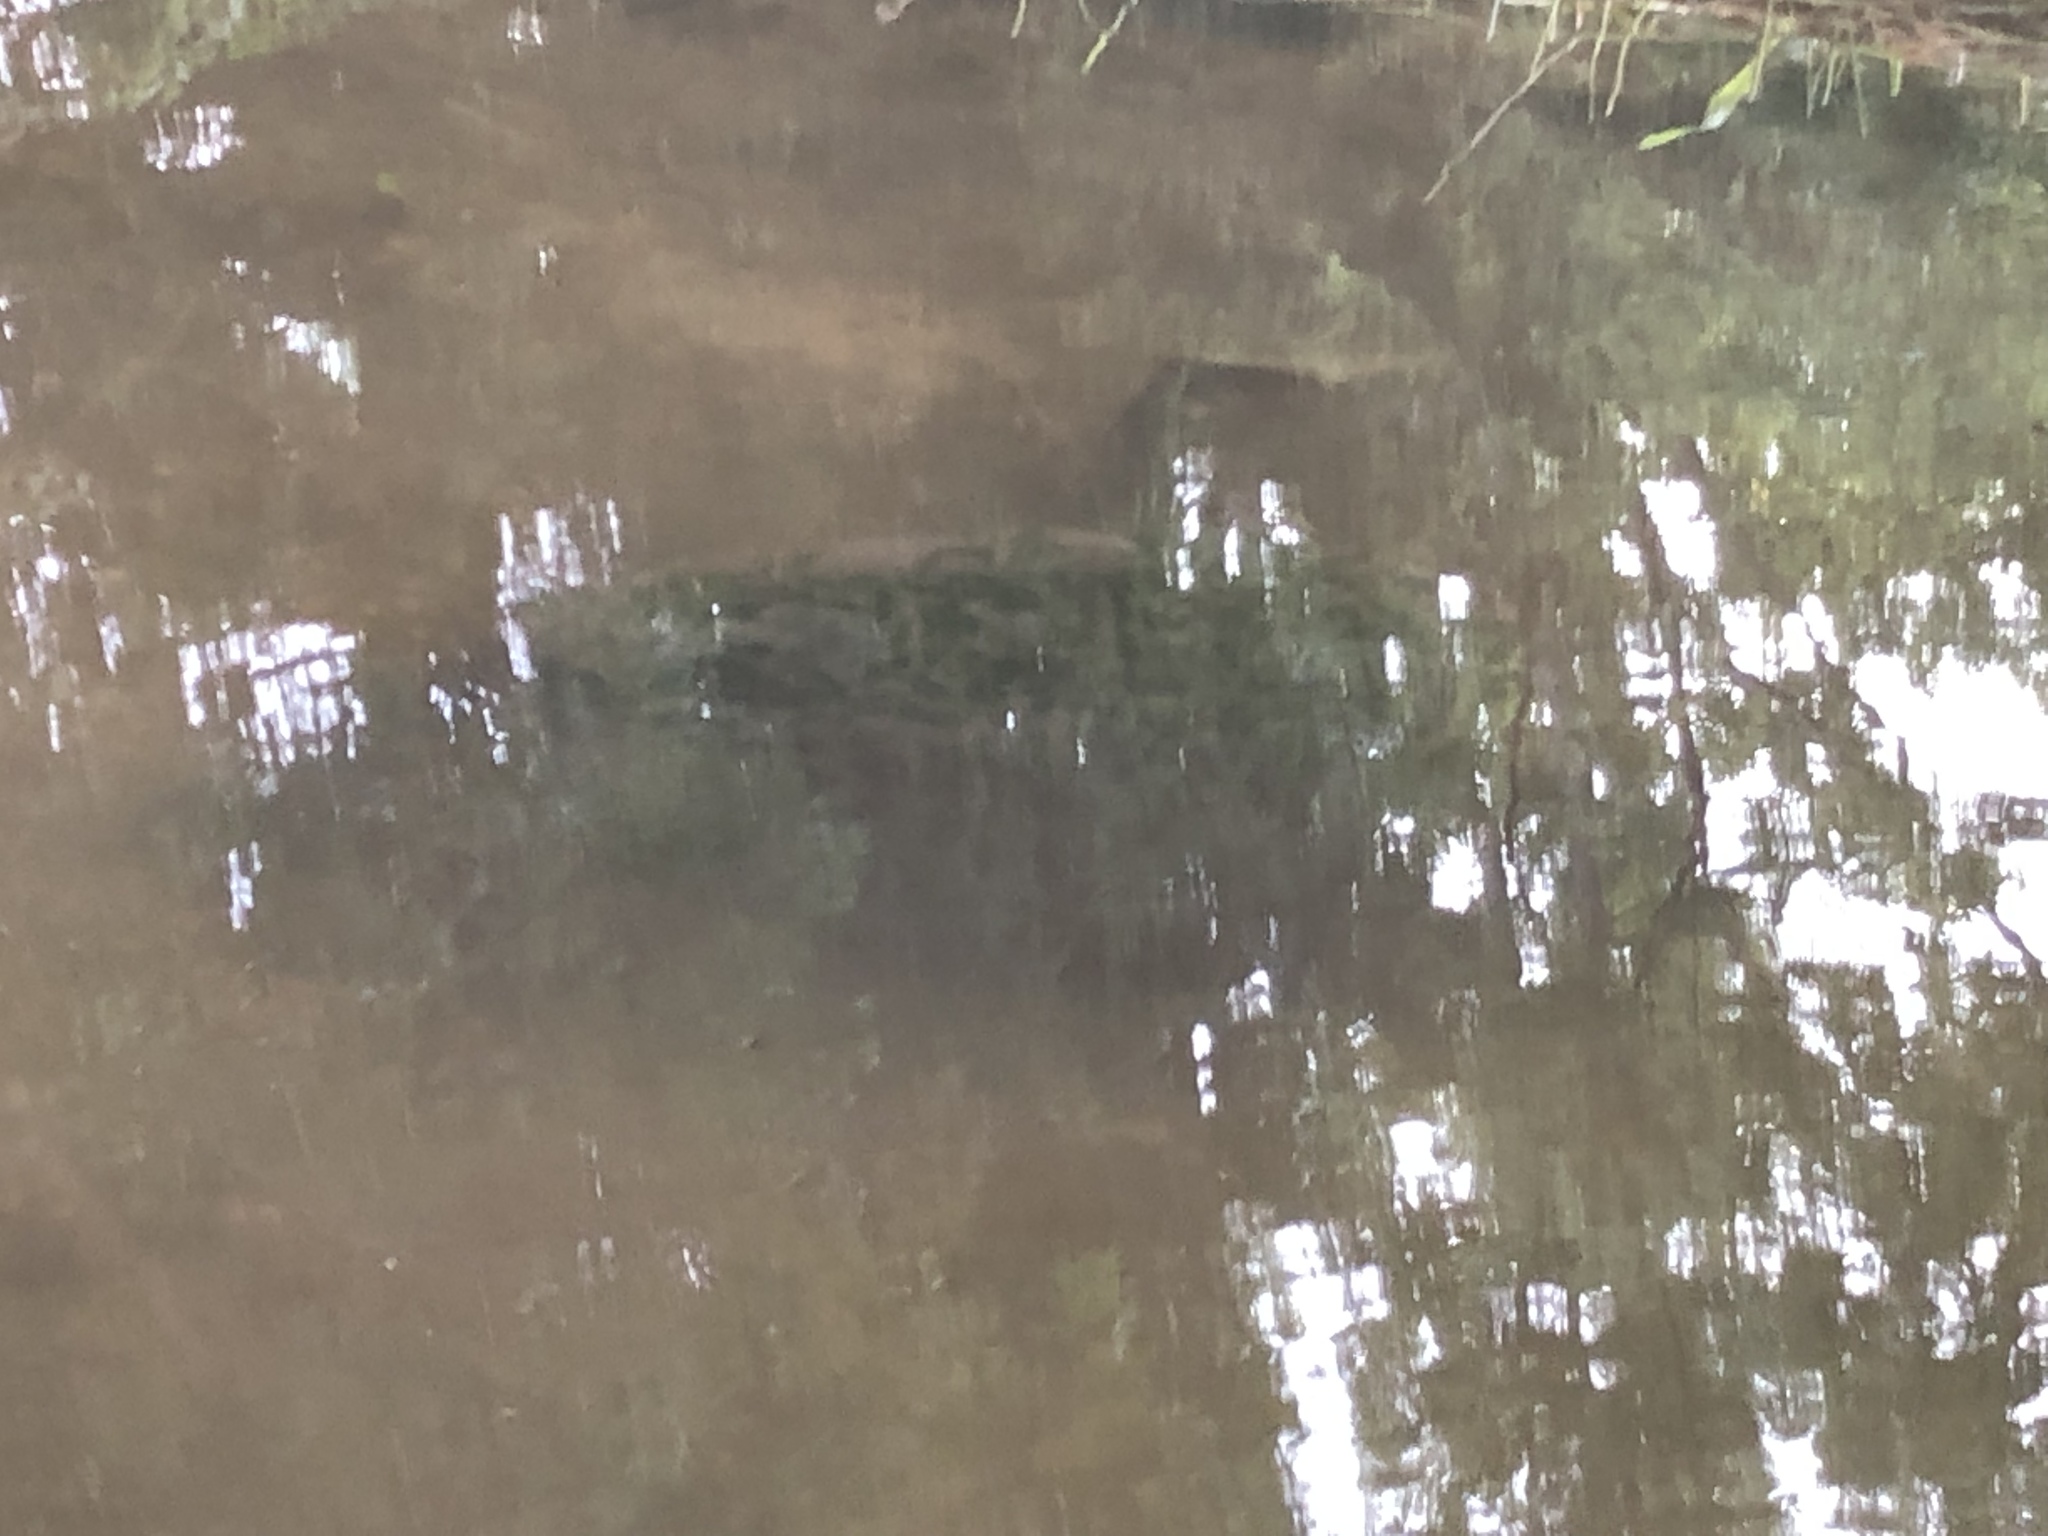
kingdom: Animalia
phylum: Chordata
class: Testudines
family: Chelydridae
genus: Chelydra
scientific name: Chelydra serpentina
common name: Common snapping turtle
